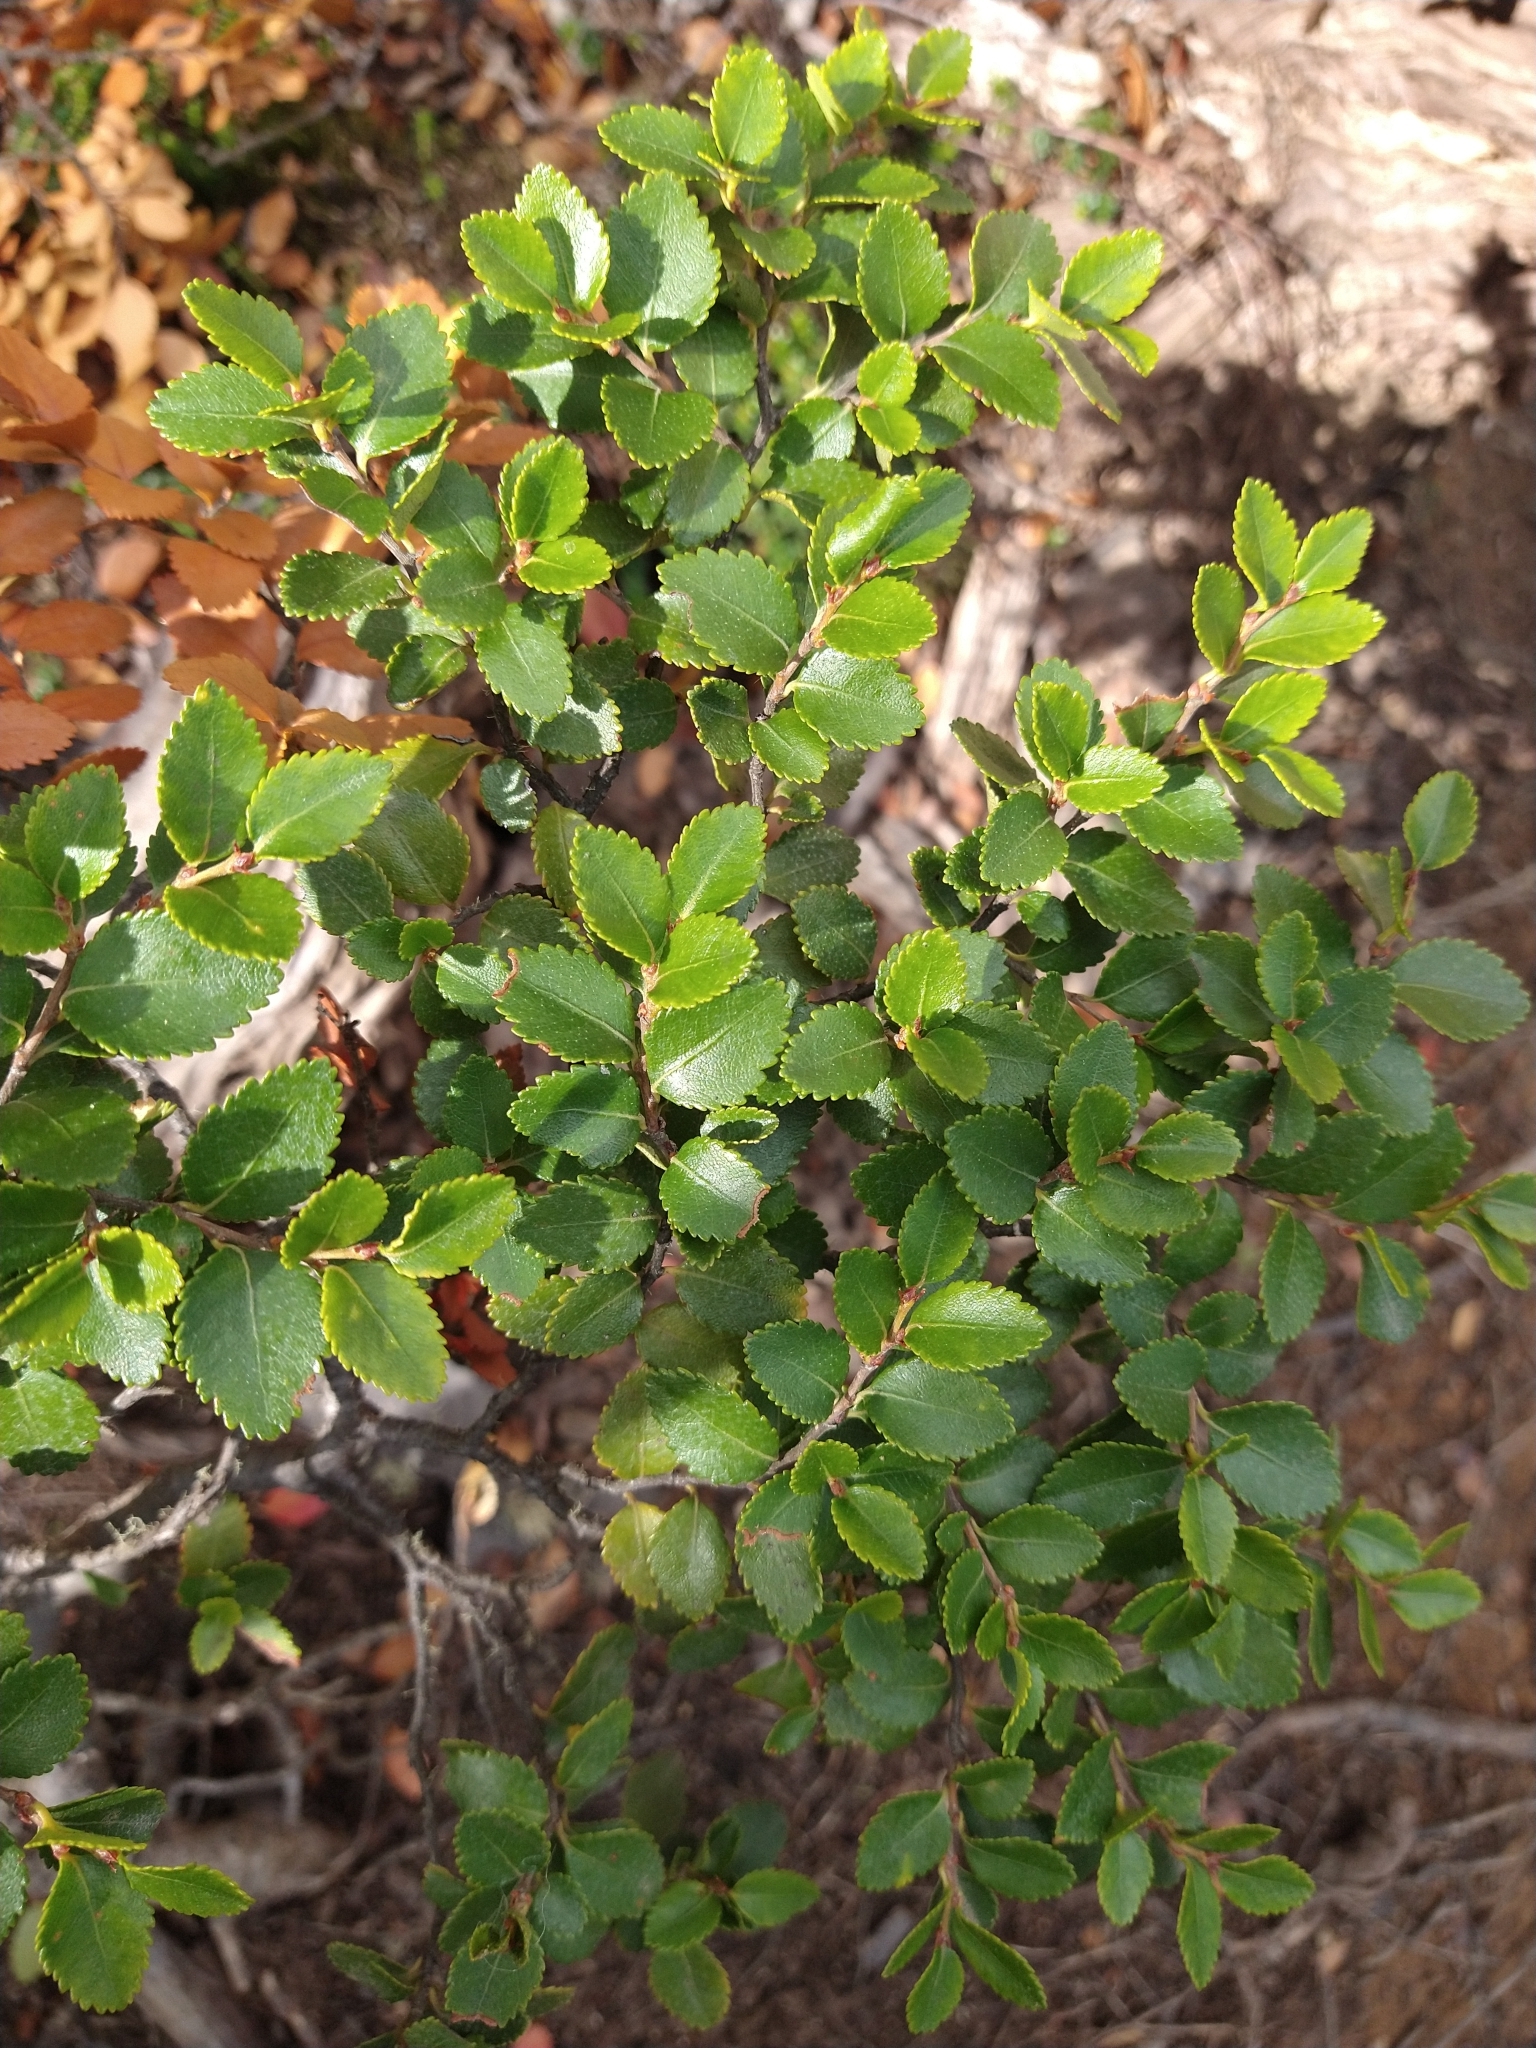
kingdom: Plantae
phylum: Tracheophyta
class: Magnoliopsida
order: Fagales
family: Nothofagaceae
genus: Nothofagus
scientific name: Nothofagus betuloides
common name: Magellan's beech
